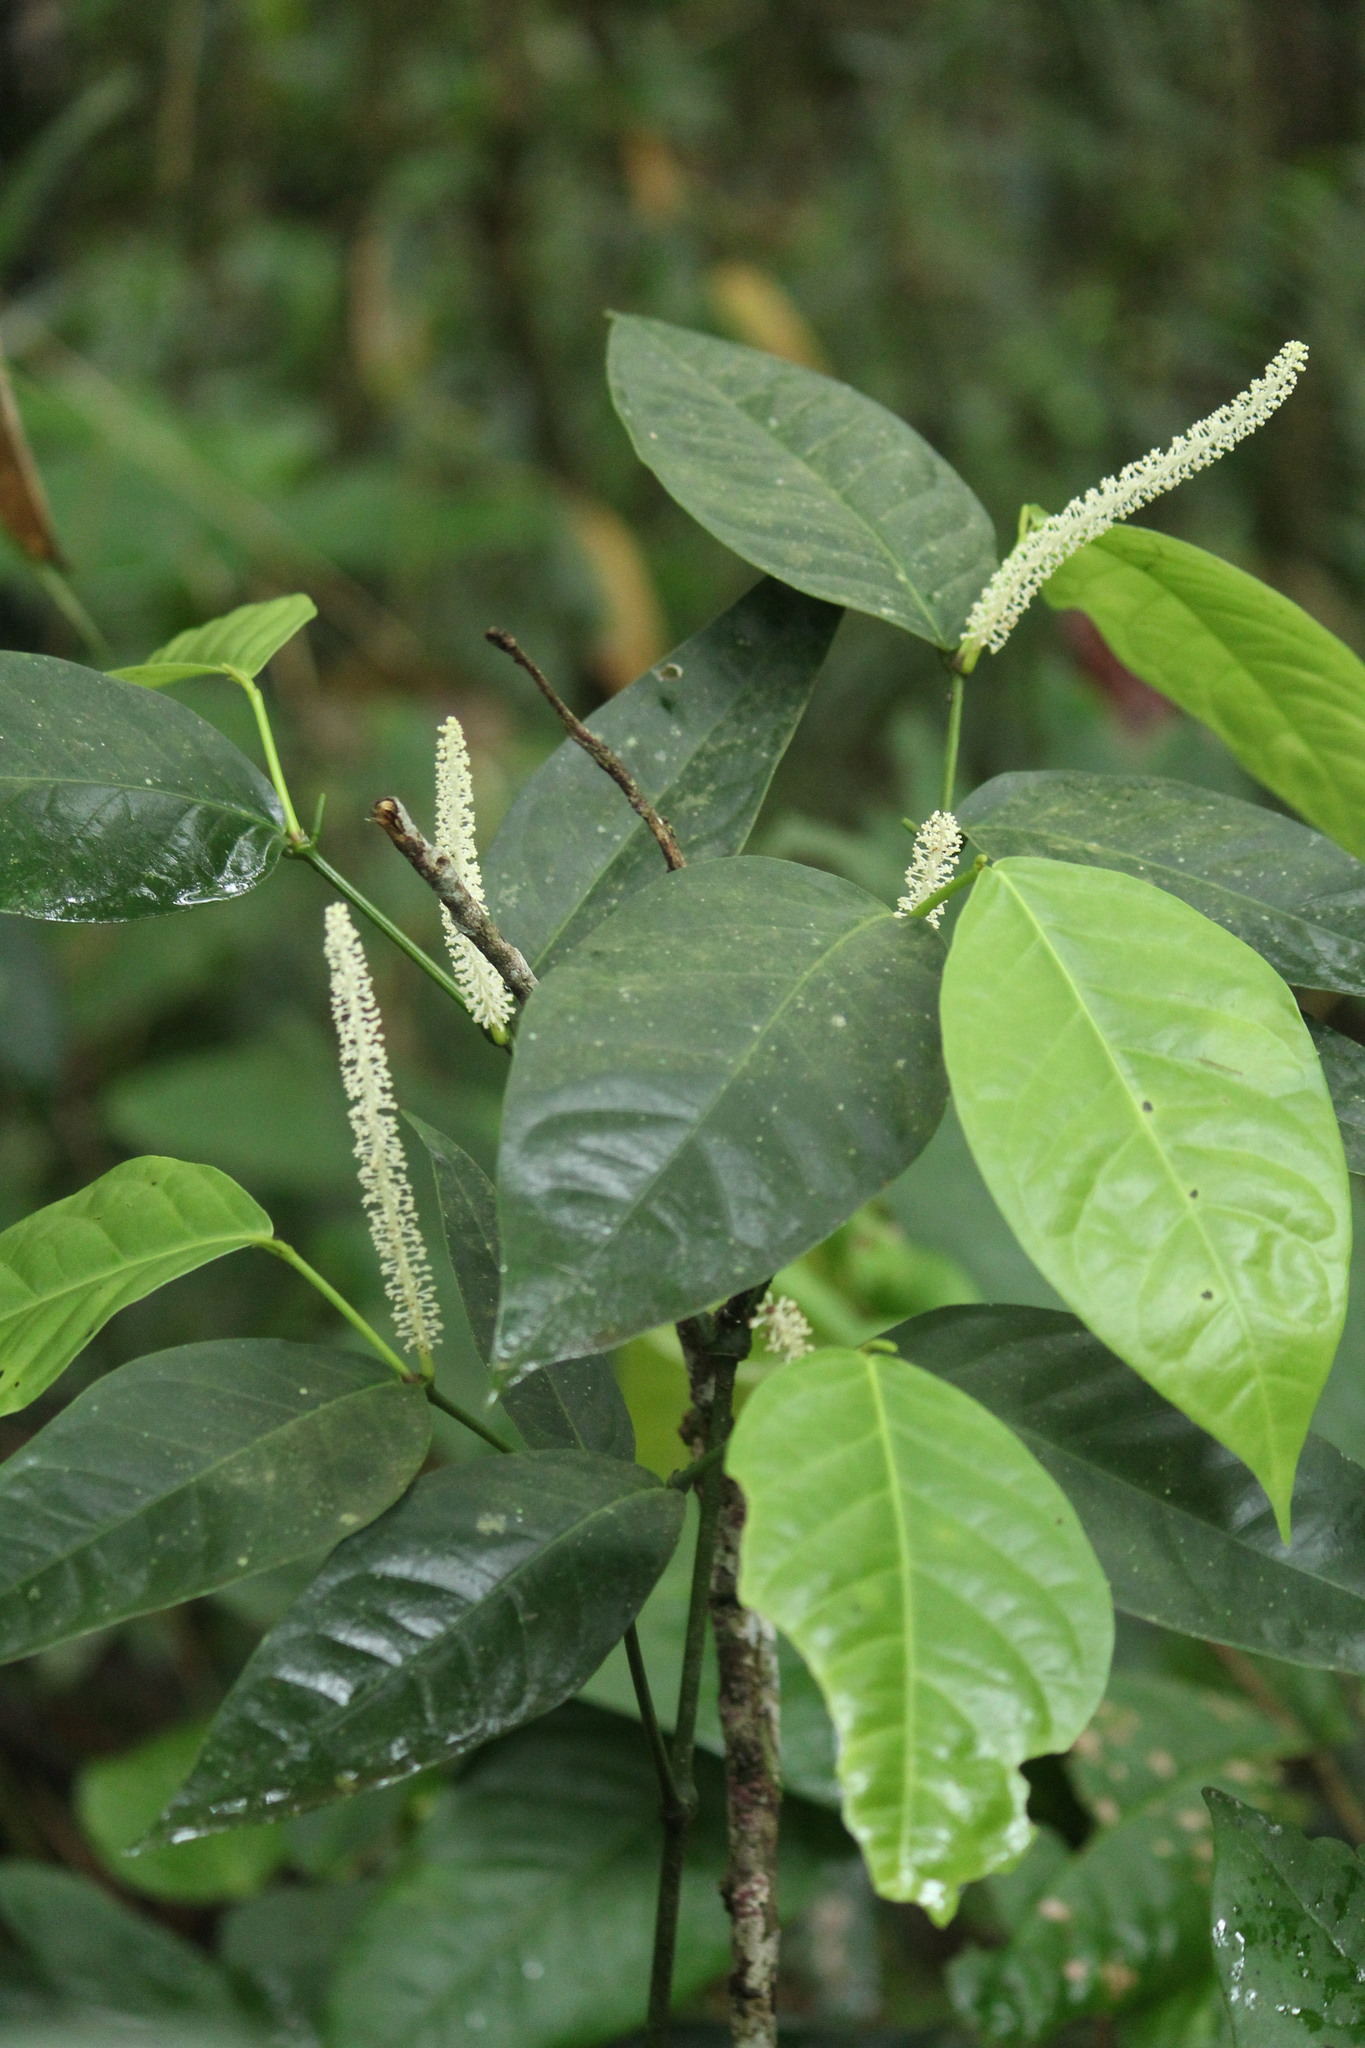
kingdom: Plantae
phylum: Tracheophyta
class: Magnoliopsida
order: Piperales
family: Piperaceae
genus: Piper
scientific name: Piper corcovadense
